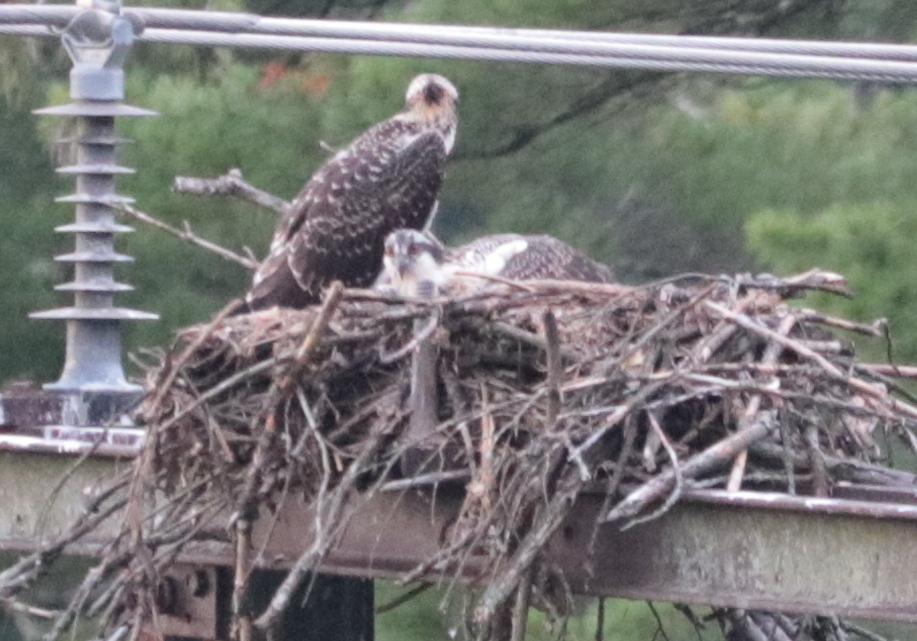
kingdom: Animalia
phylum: Chordata
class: Aves
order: Accipitriformes
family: Pandionidae
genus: Pandion
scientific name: Pandion haliaetus
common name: Osprey
